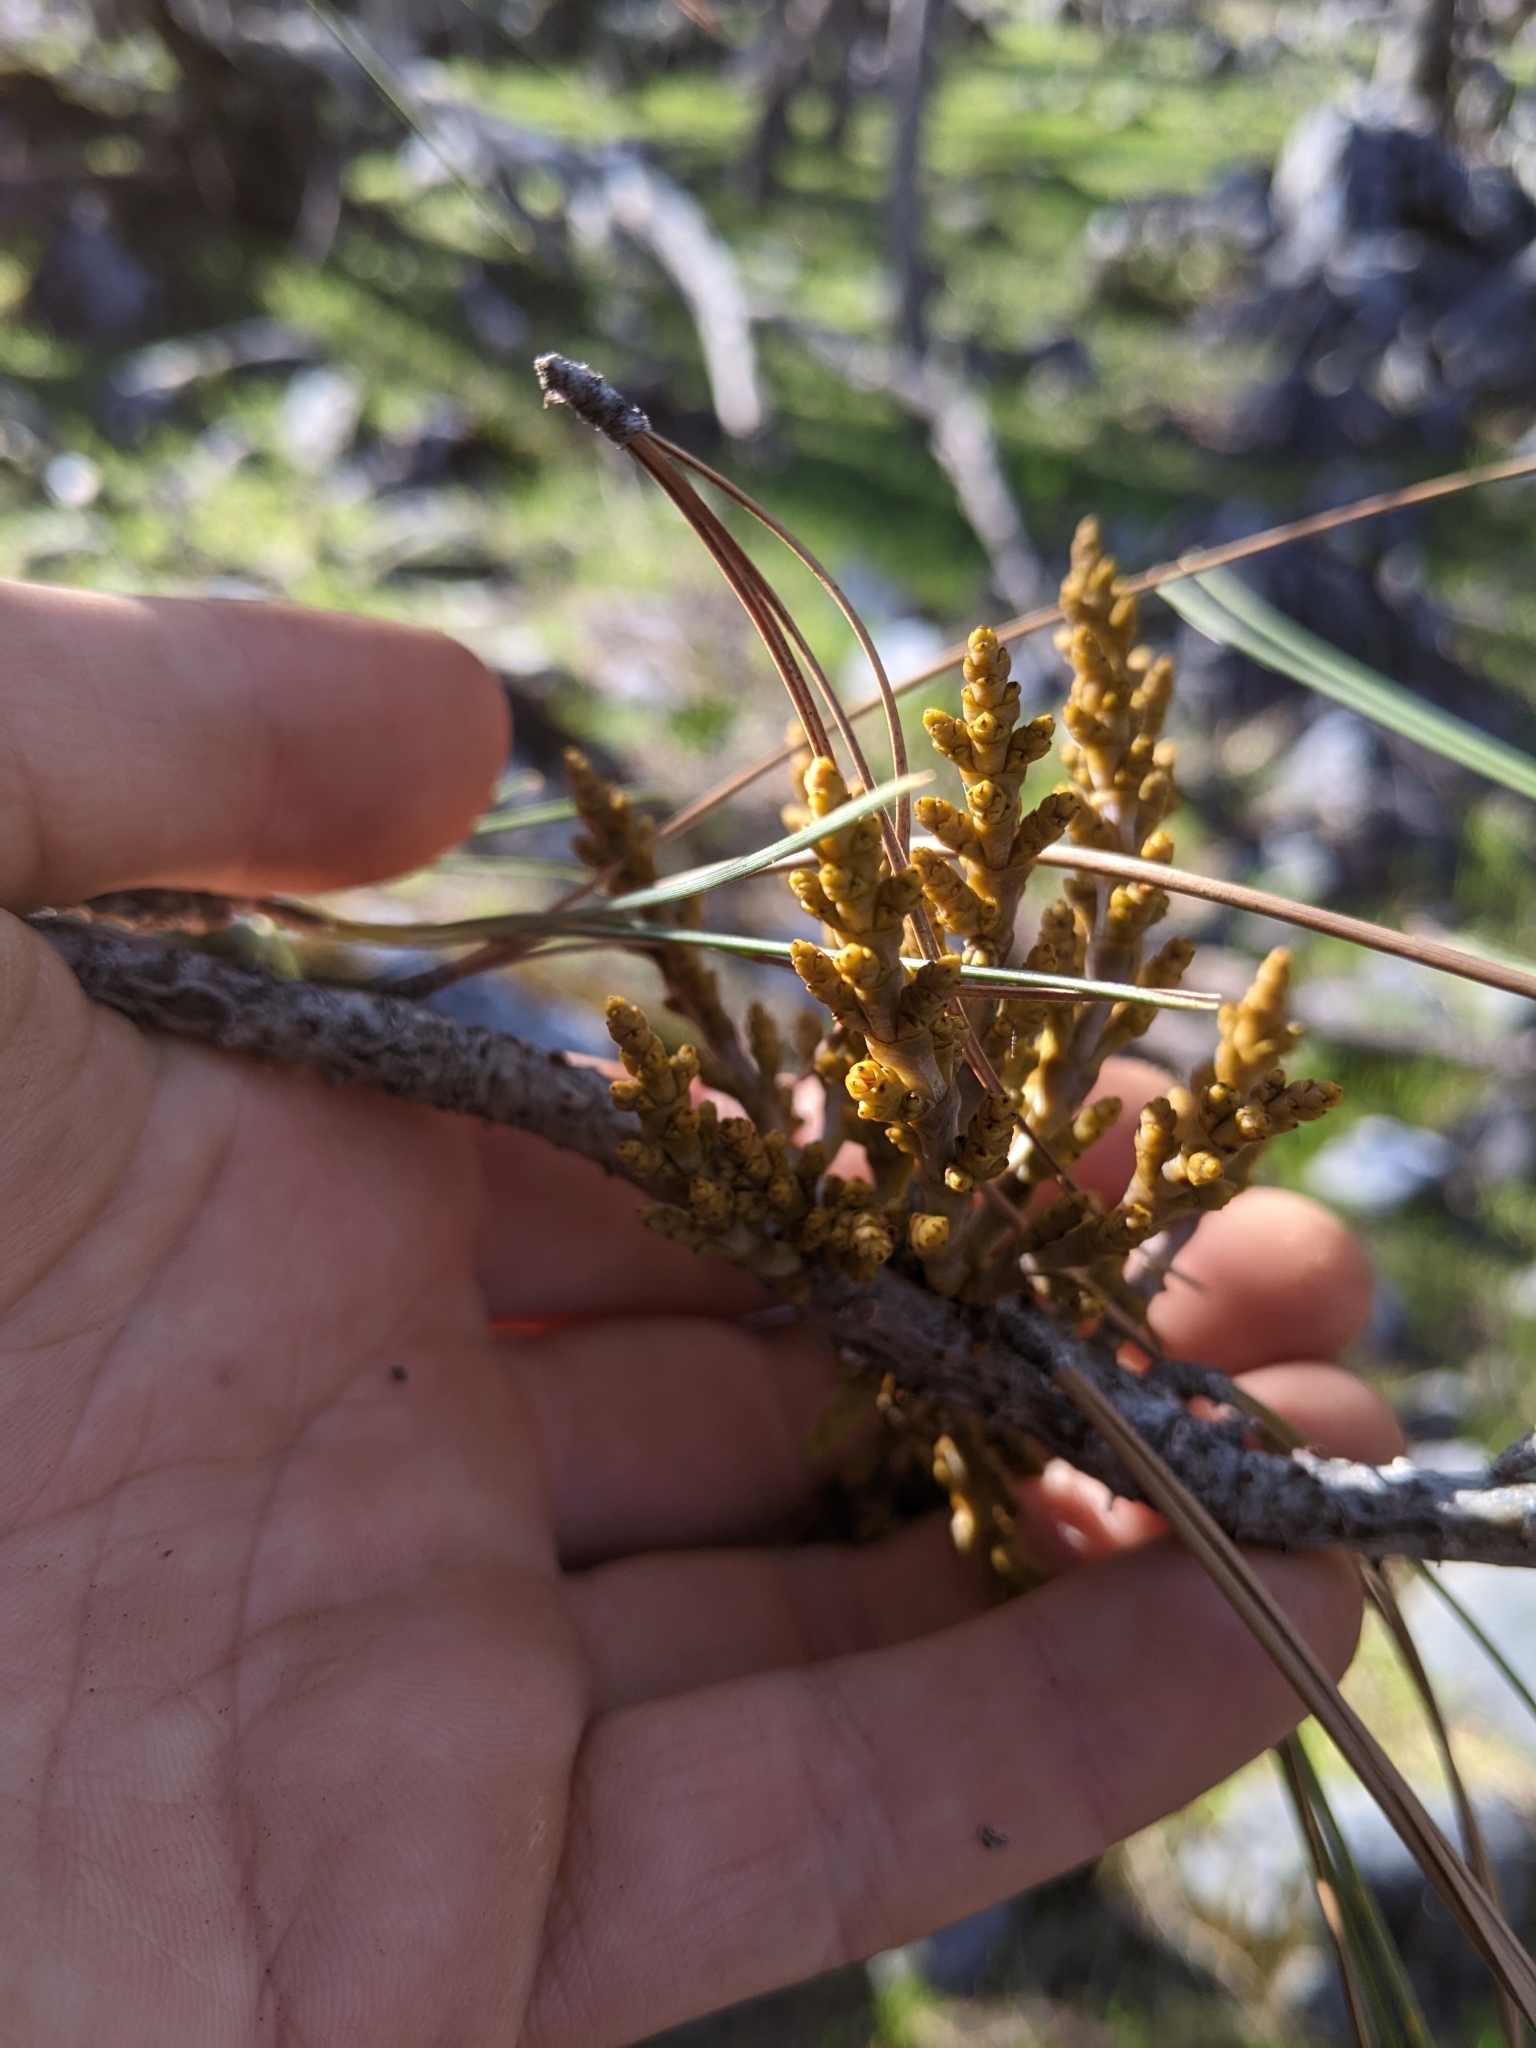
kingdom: Plantae
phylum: Tracheophyta
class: Magnoliopsida
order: Santalales
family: Viscaceae
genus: Arceuthobium
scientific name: Arceuthobium campylopodum
